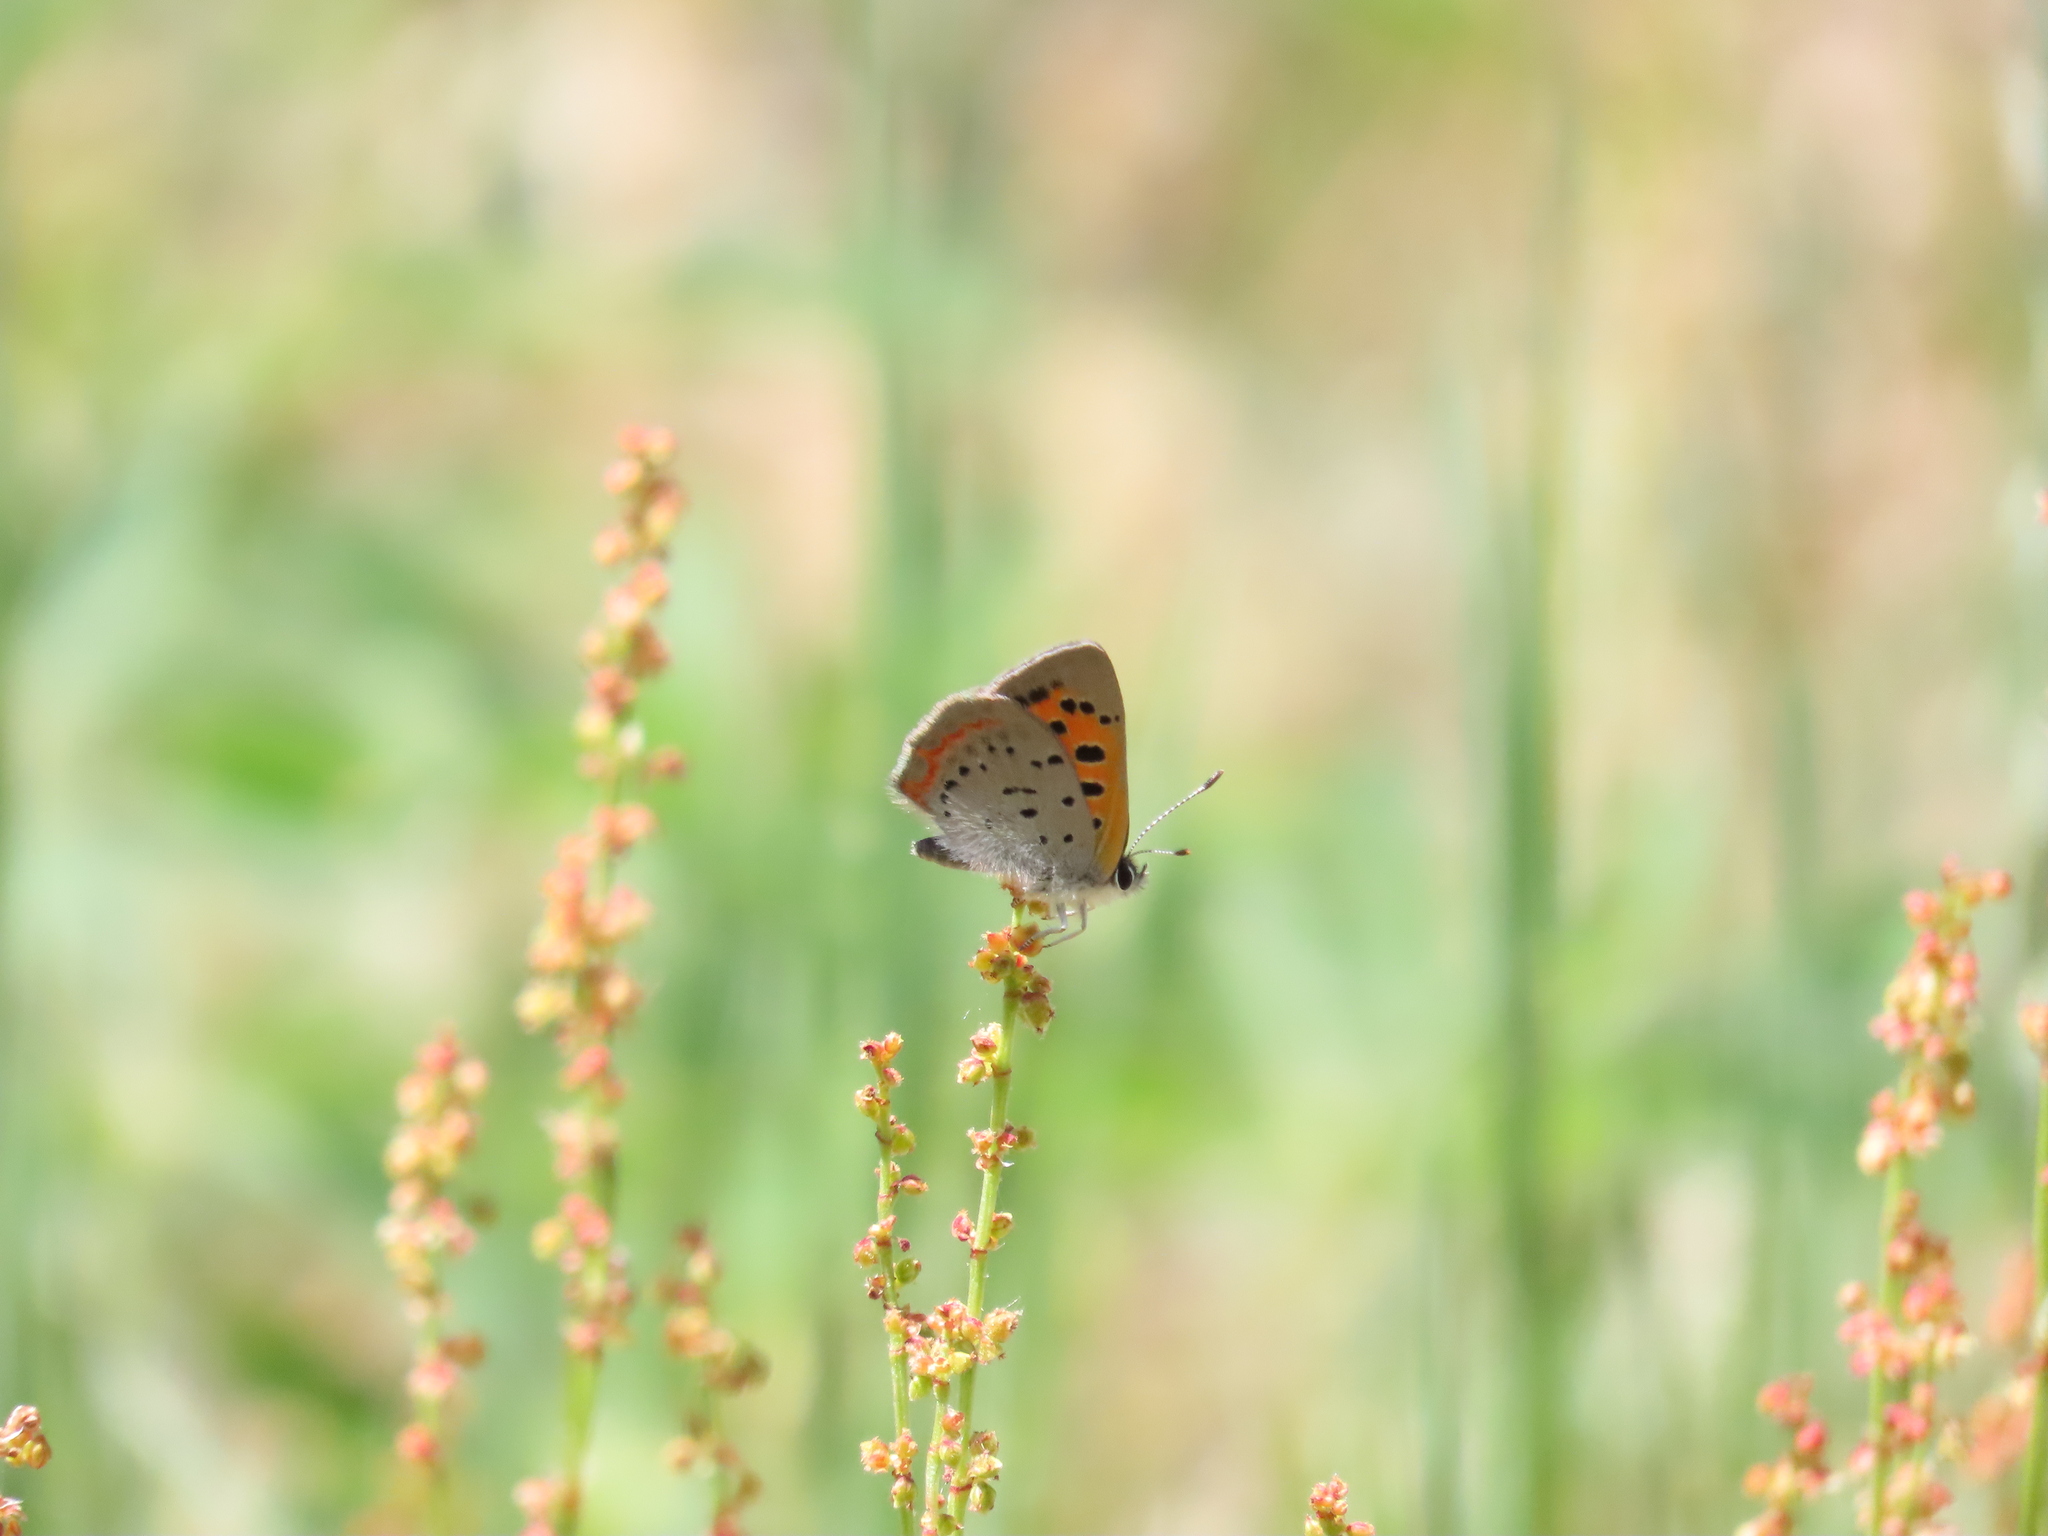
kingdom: Animalia
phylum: Arthropoda
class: Insecta
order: Lepidoptera
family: Lycaenidae
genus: Lycaena
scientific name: Lycaena hypophlaeas
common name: American copper
